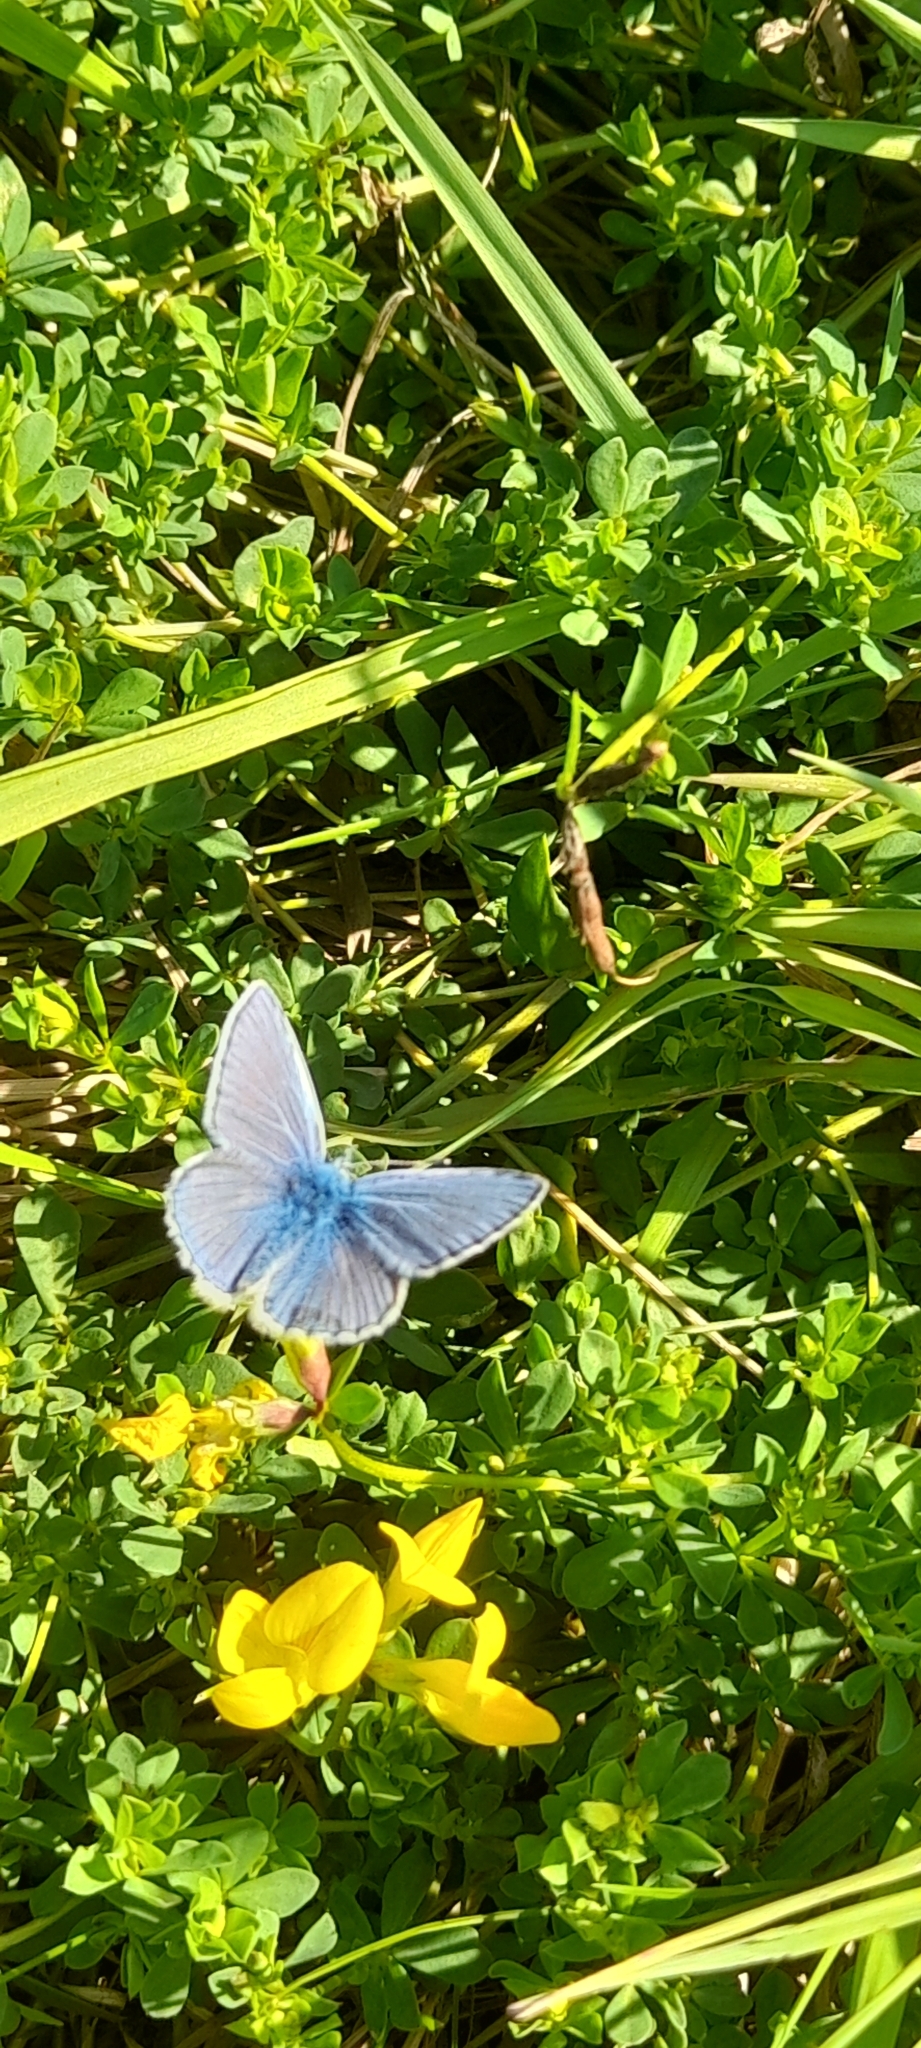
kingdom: Animalia
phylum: Arthropoda
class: Insecta
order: Lepidoptera
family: Lycaenidae
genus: Polyommatus
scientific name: Polyommatus icarus
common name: Common blue
